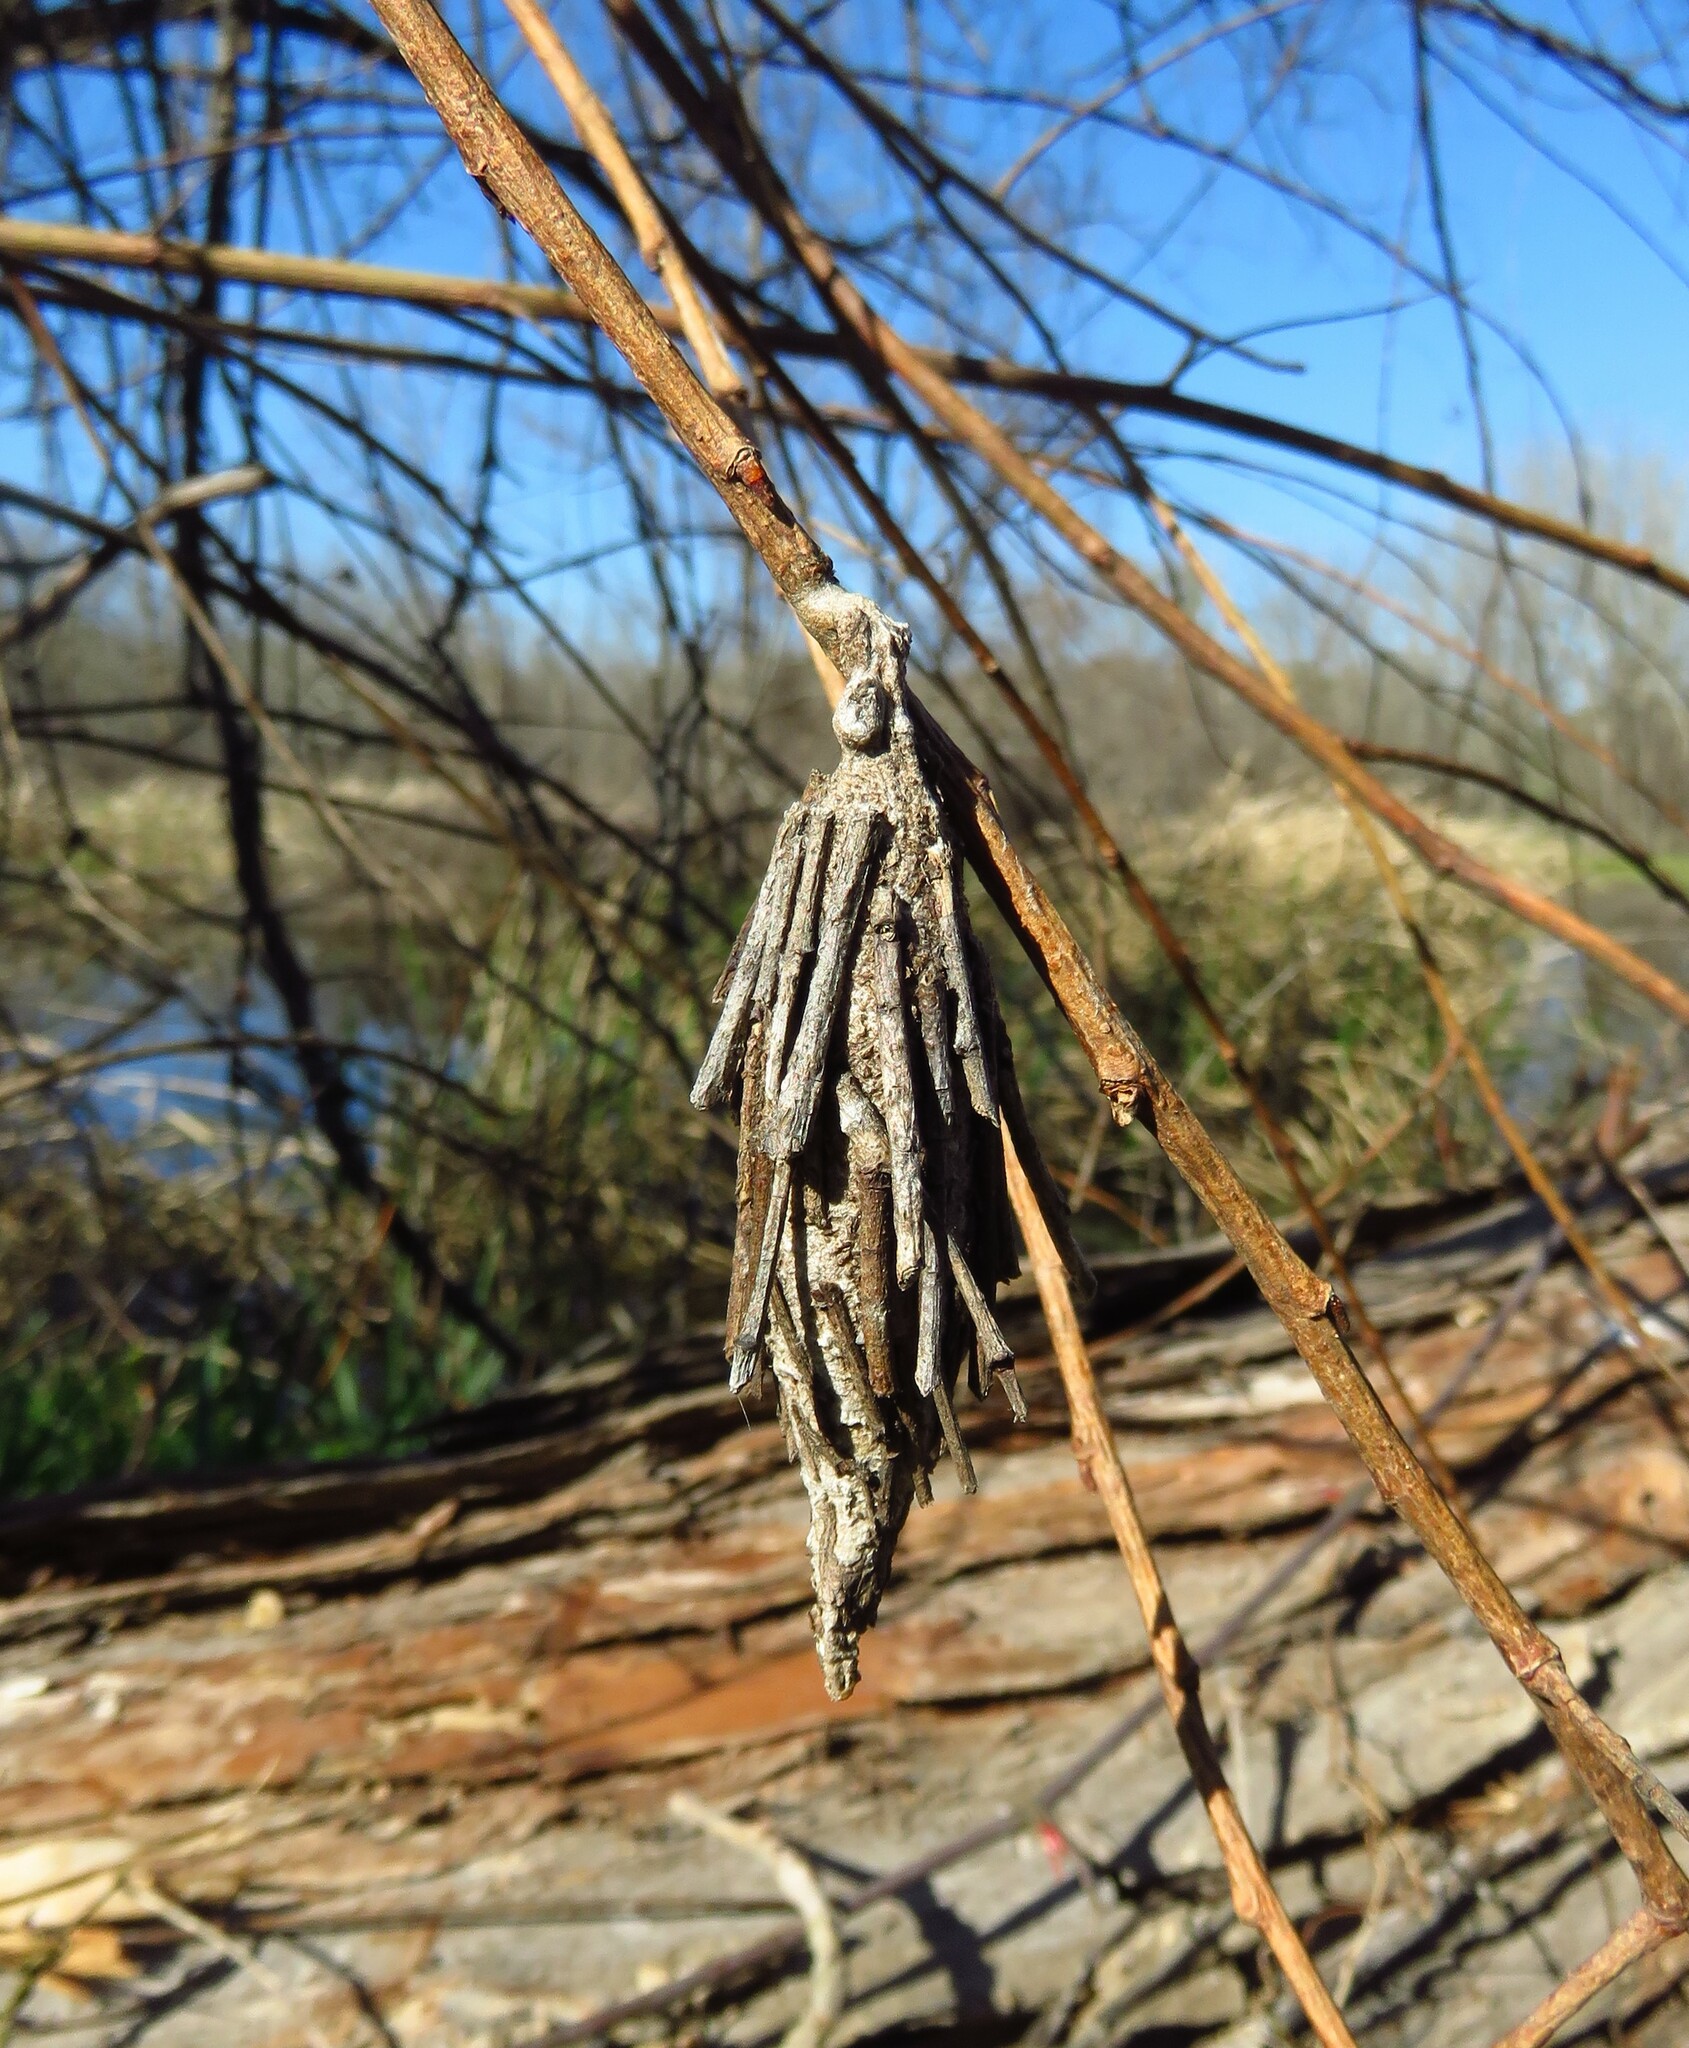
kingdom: Animalia
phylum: Arthropoda
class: Insecta
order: Lepidoptera
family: Psychidae
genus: Thyridopteryx
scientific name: Thyridopteryx ephemeraeformis
